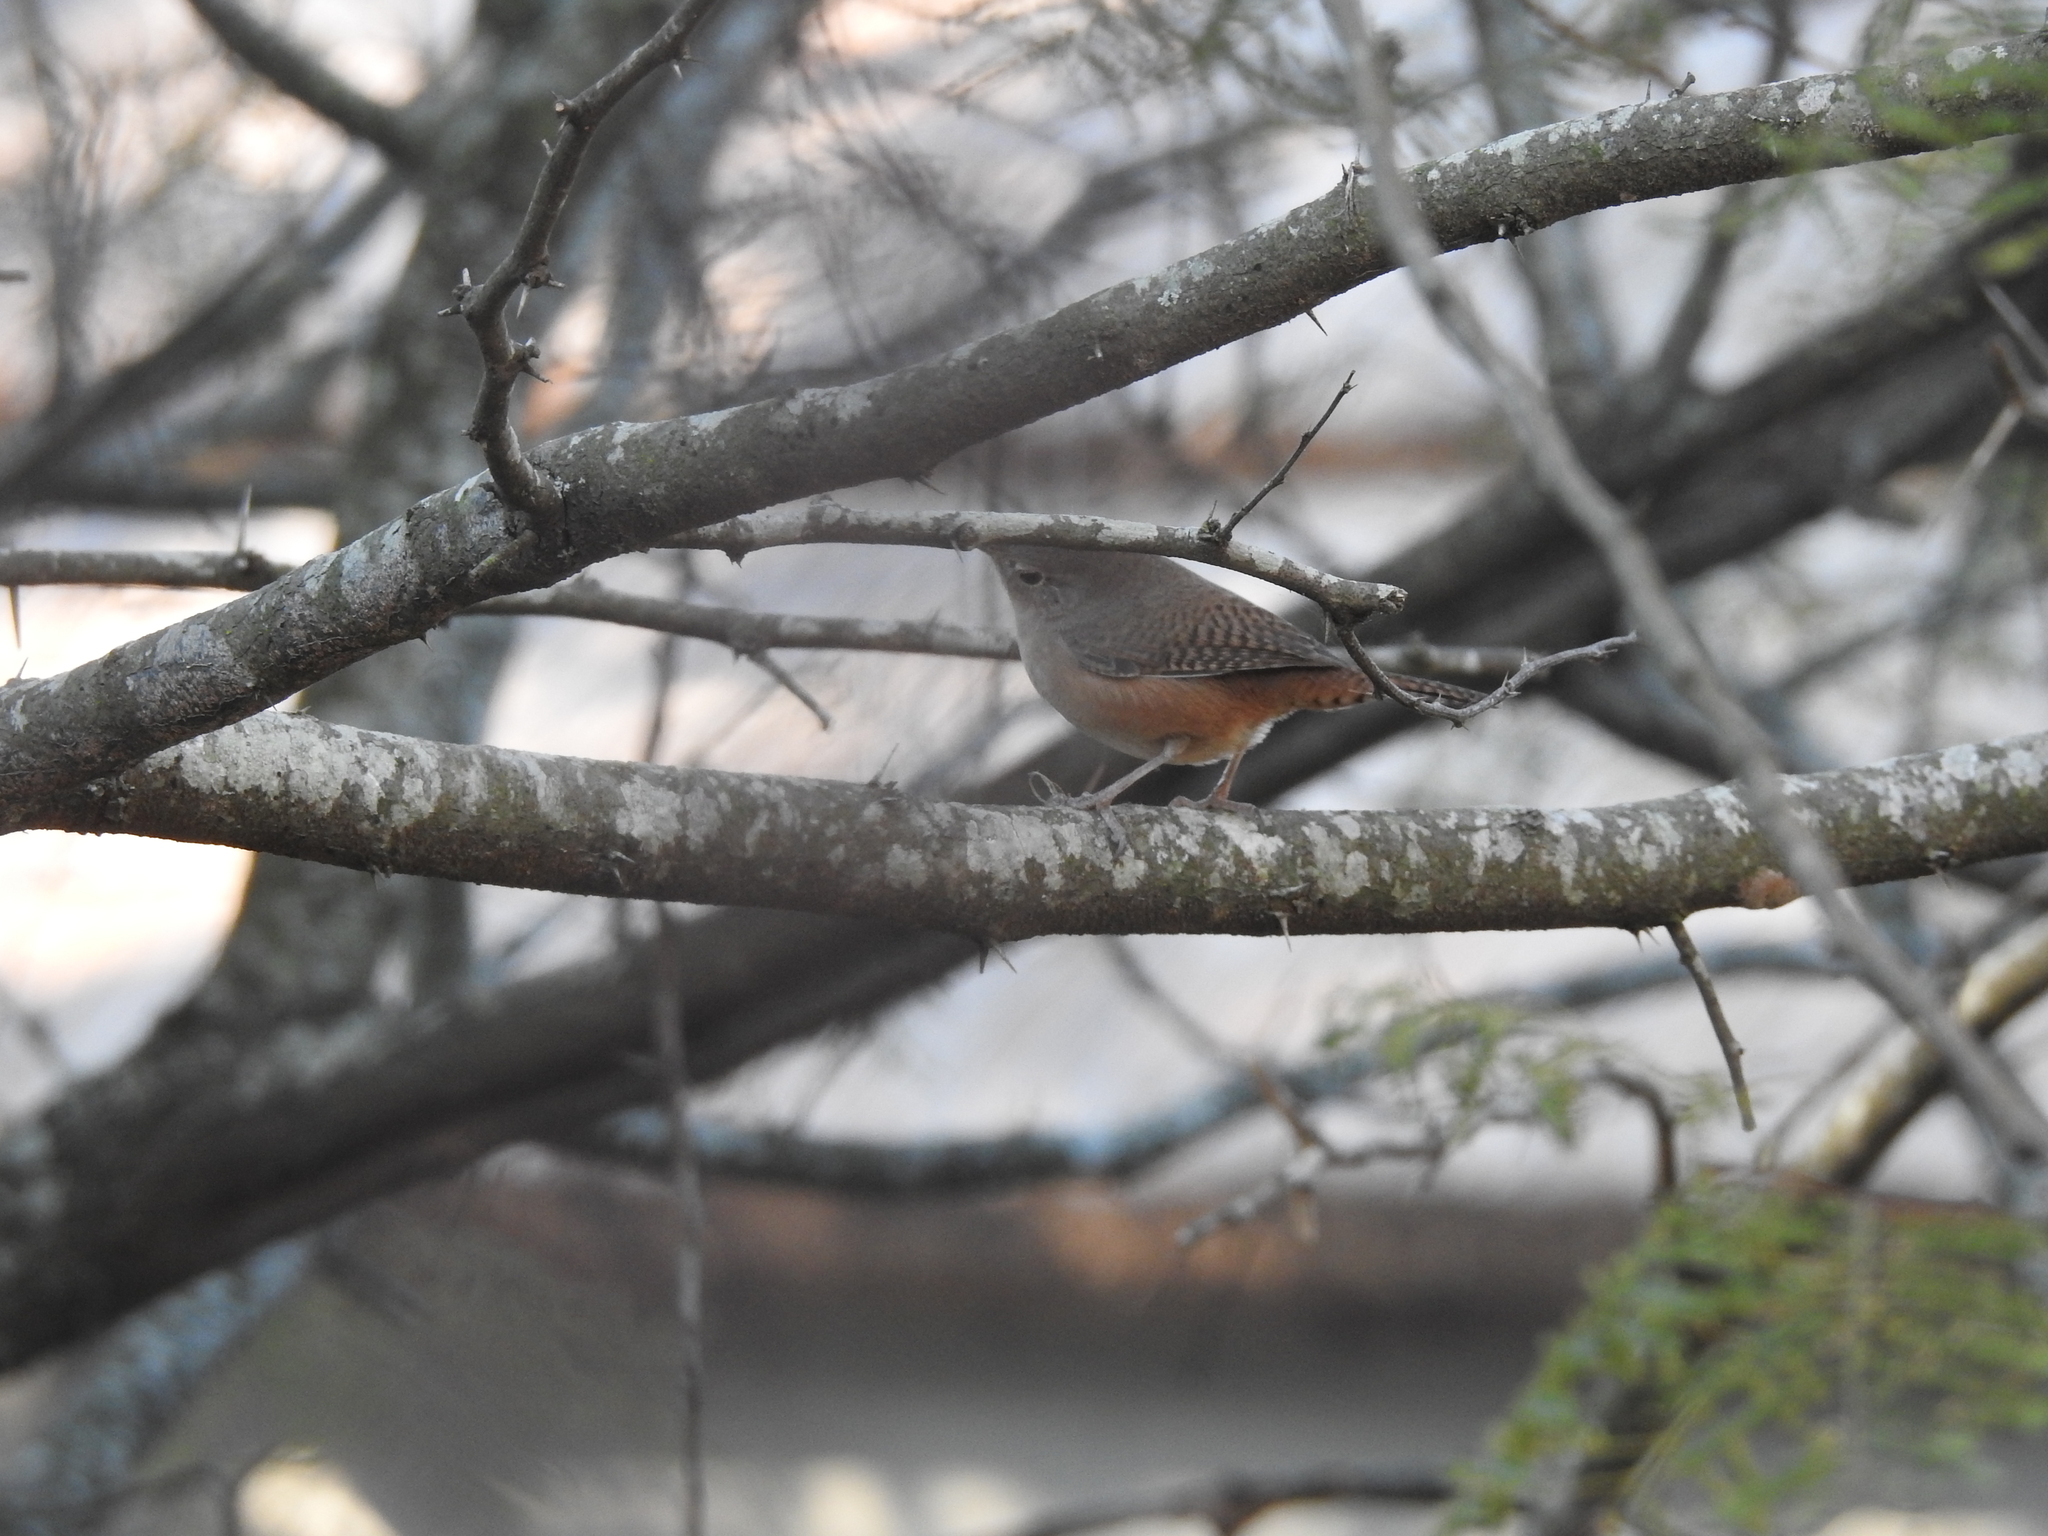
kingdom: Animalia
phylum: Chordata
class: Aves
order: Passeriformes
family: Troglodytidae
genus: Troglodytes
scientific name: Troglodytes aedon
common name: House wren
